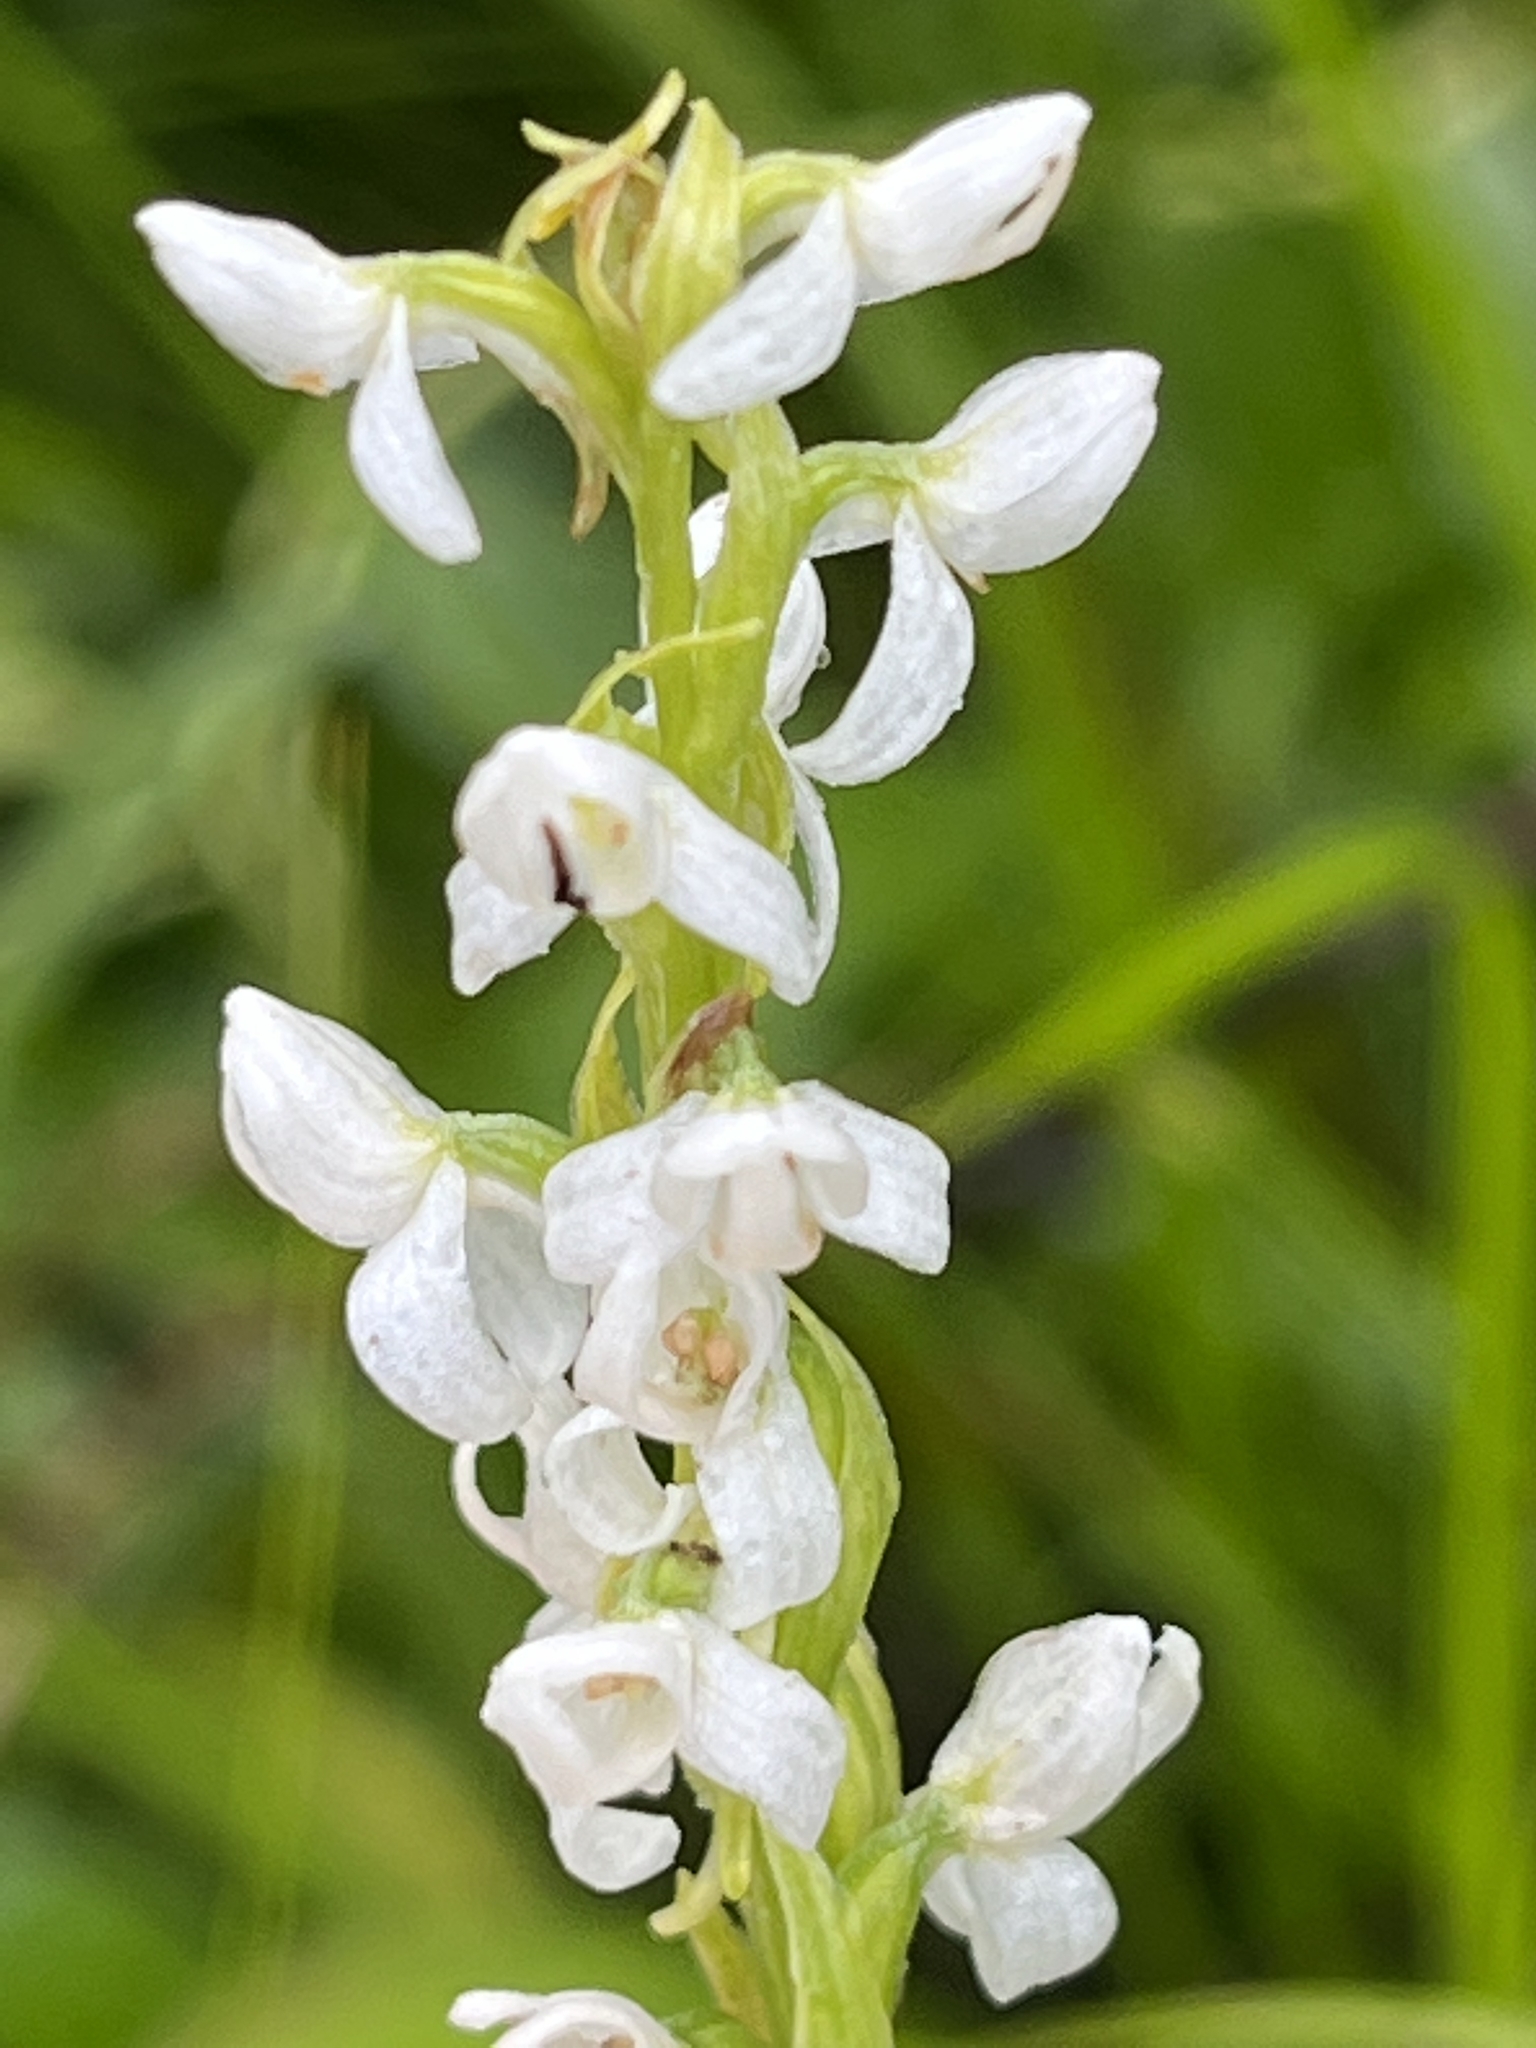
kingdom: Plantae
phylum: Tracheophyta
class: Liliopsida
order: Asparagales
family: Orchidaceae
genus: Platanthera
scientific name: Platanthera dilatata
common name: Bog candles
